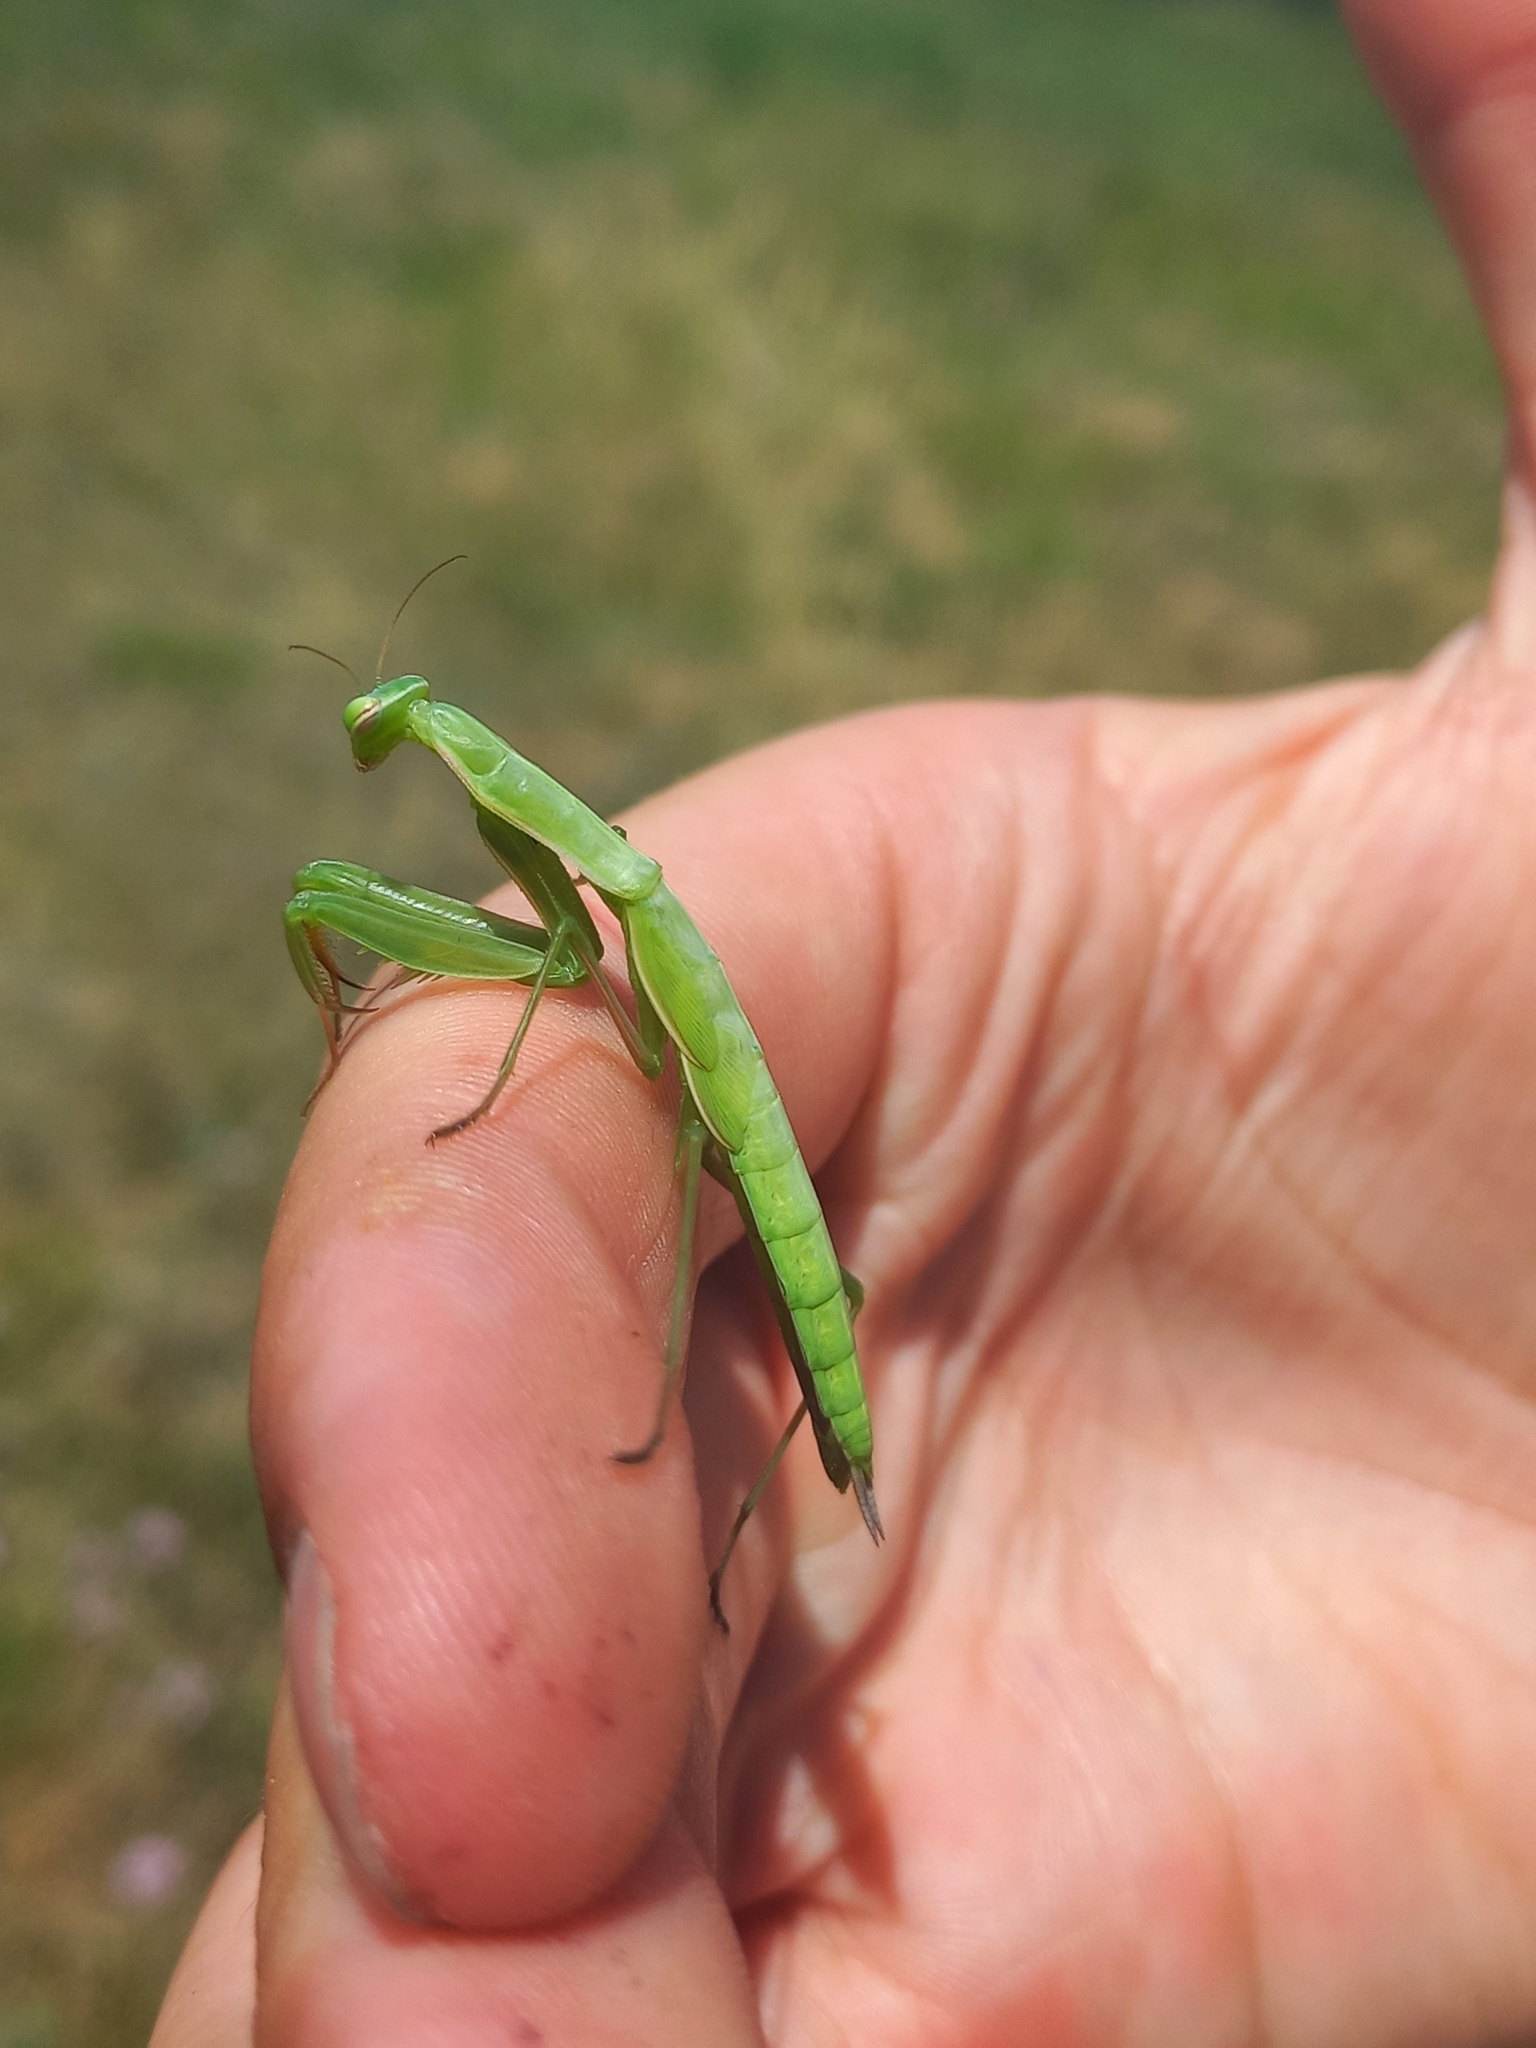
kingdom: Animalia
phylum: Arthropoda
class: Insecta
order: Mantodea
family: Mantidae
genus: Mantis
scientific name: Mantis religiosa
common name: Praying mantis
